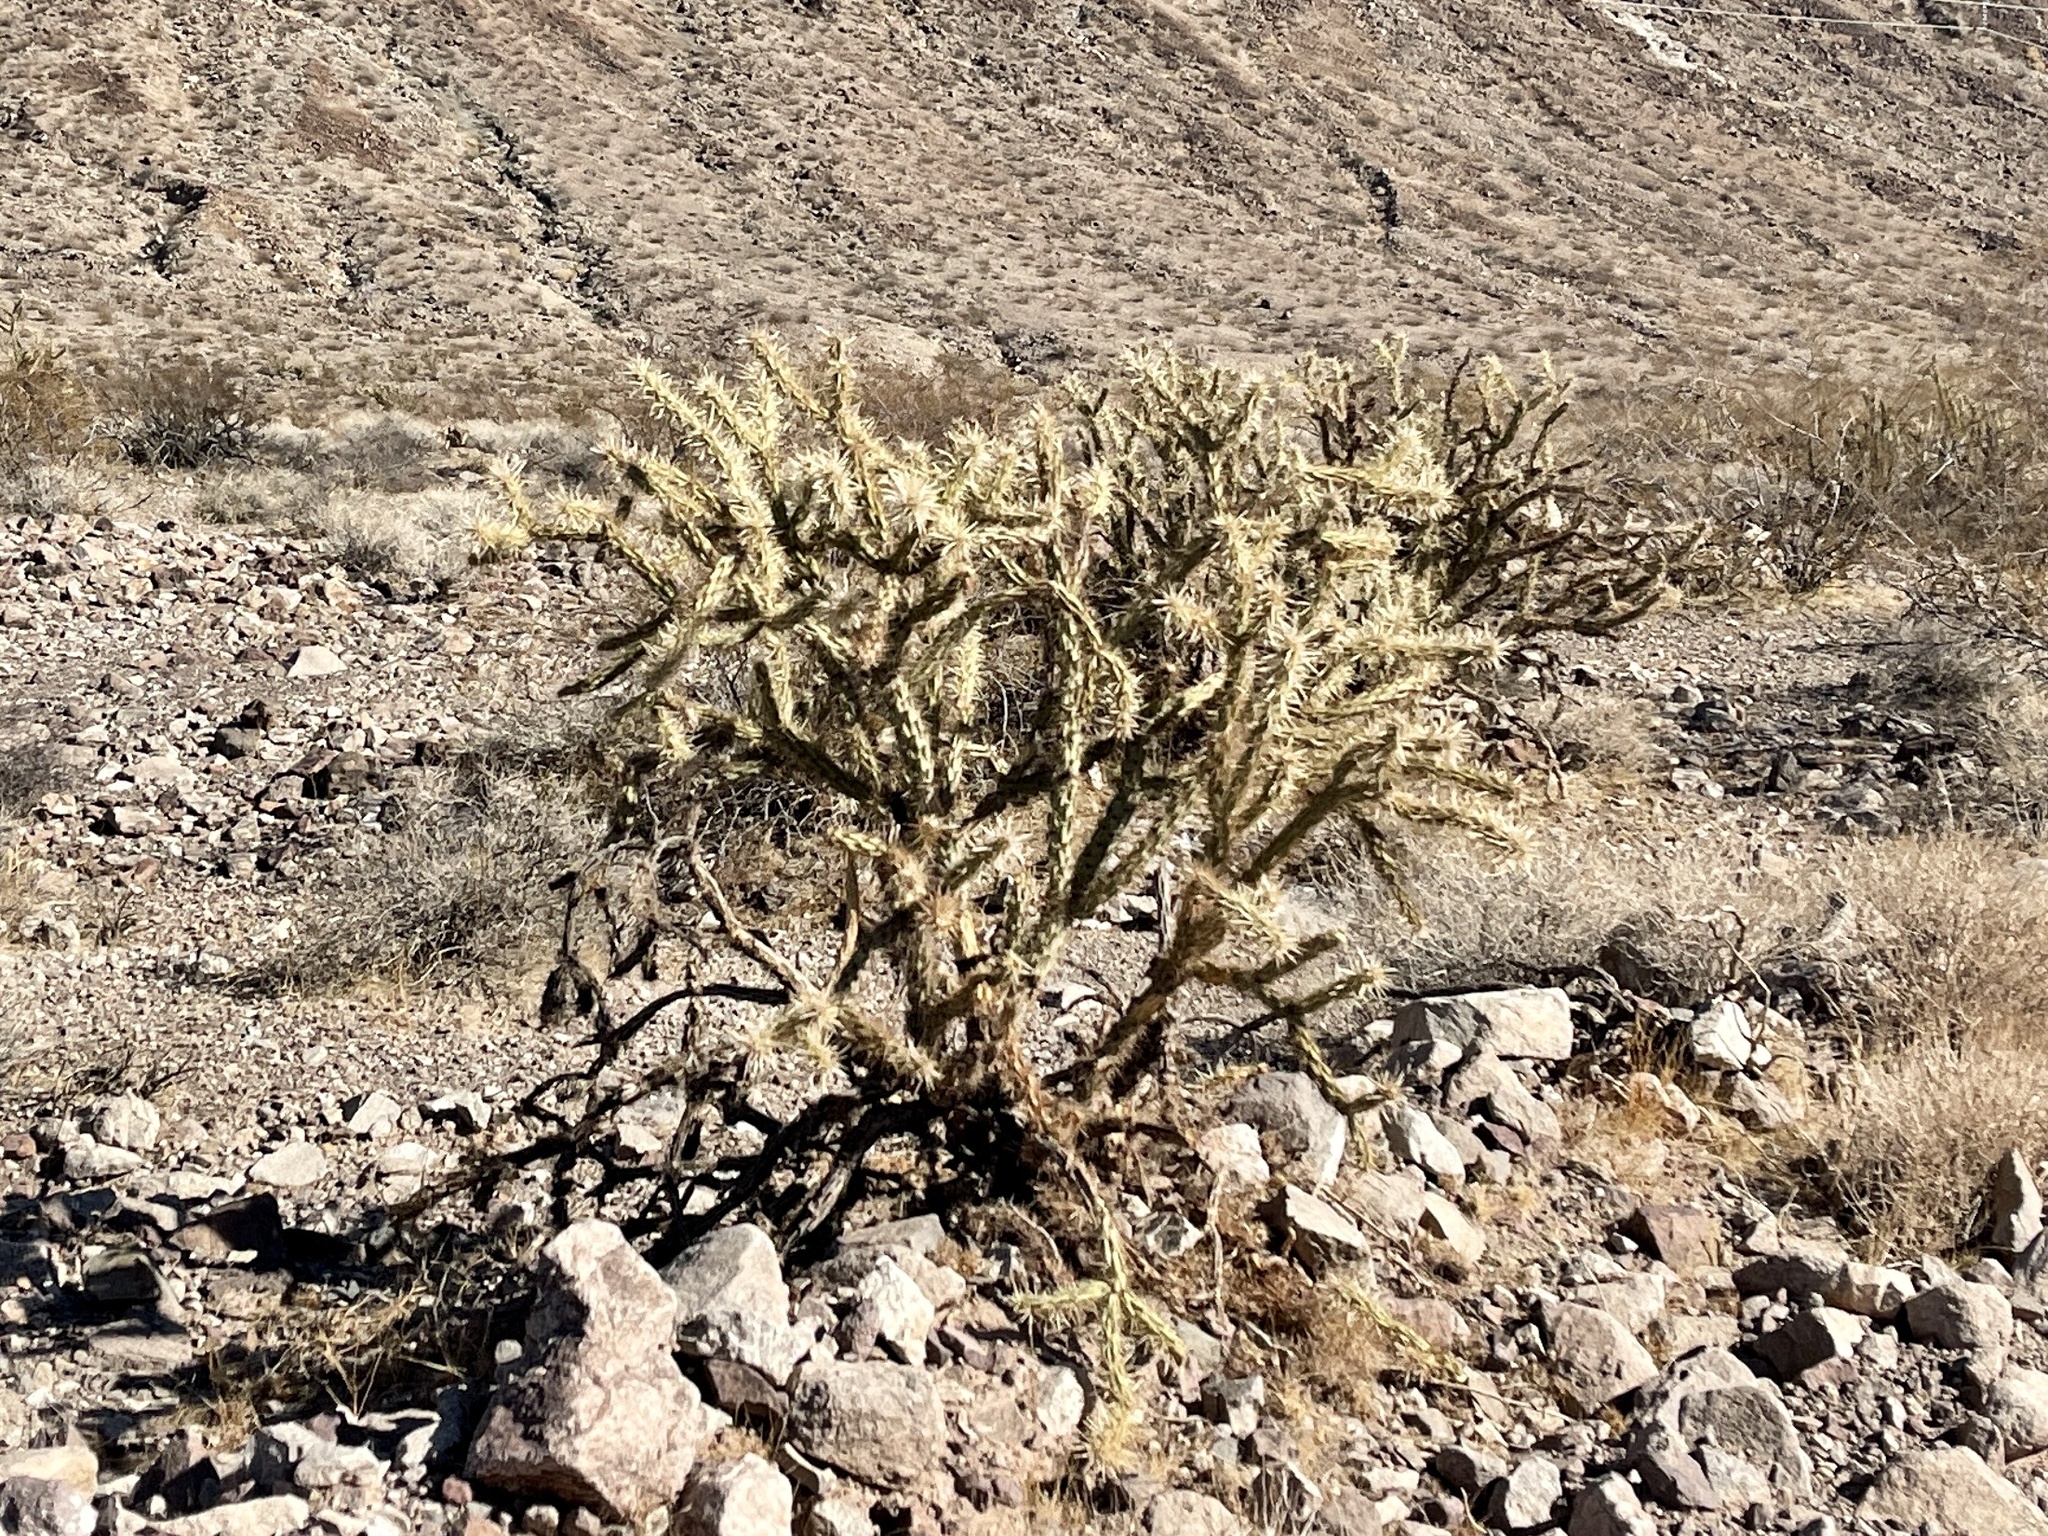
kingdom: Plantae
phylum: Tracheophyta
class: Magnoliopsida
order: Caryophyllales
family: Cactaceae
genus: Cylindropuntia
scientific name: Cylindropuntia acanthocarpa
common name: Buckhorn cholla
